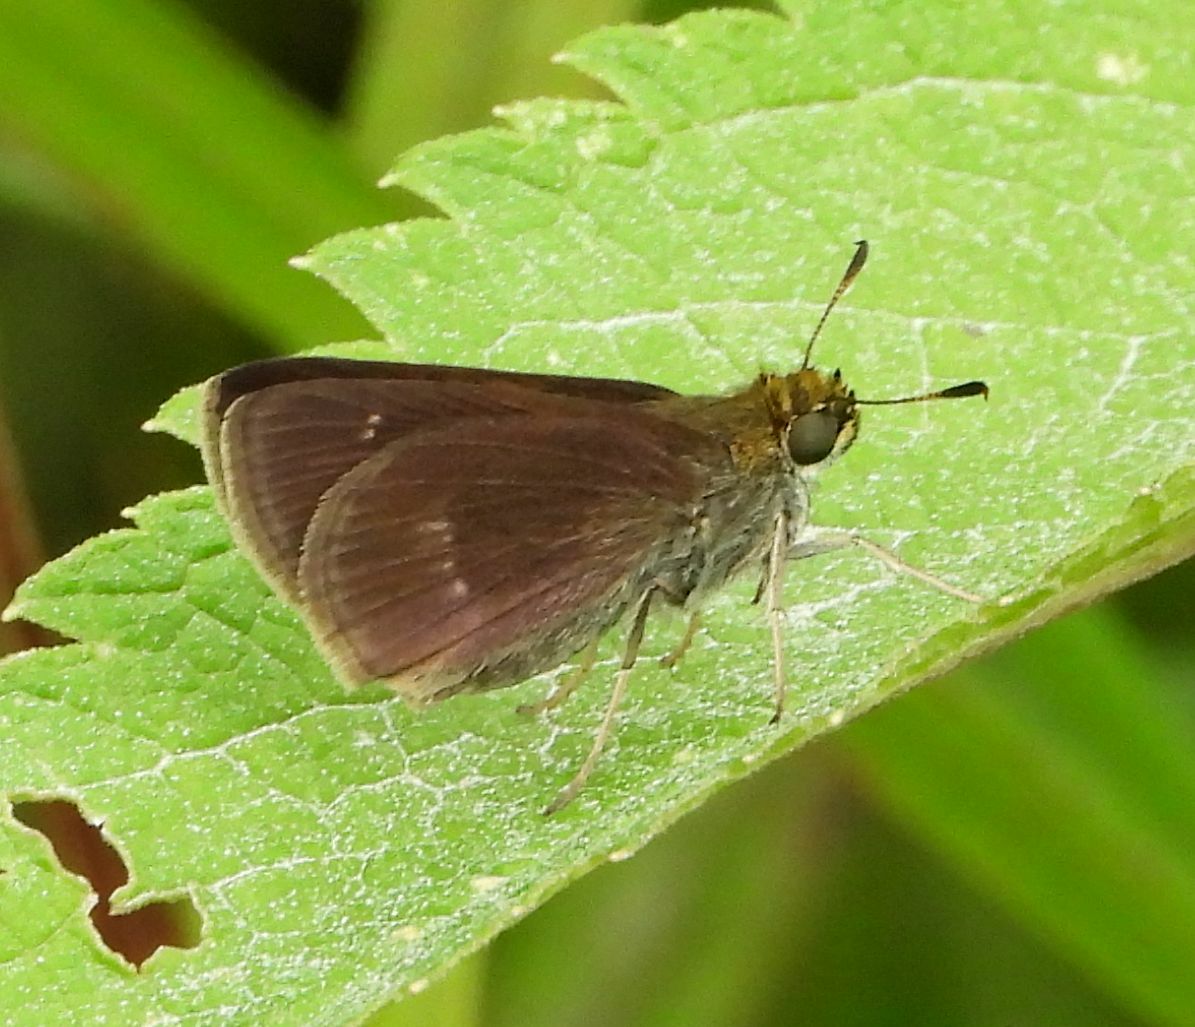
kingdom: Animalia
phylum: Arthropoda
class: Insecta
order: Lepidoptera
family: Hesperiidae
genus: Euphyes
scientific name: Euphyes vestris
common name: Dun skipper
